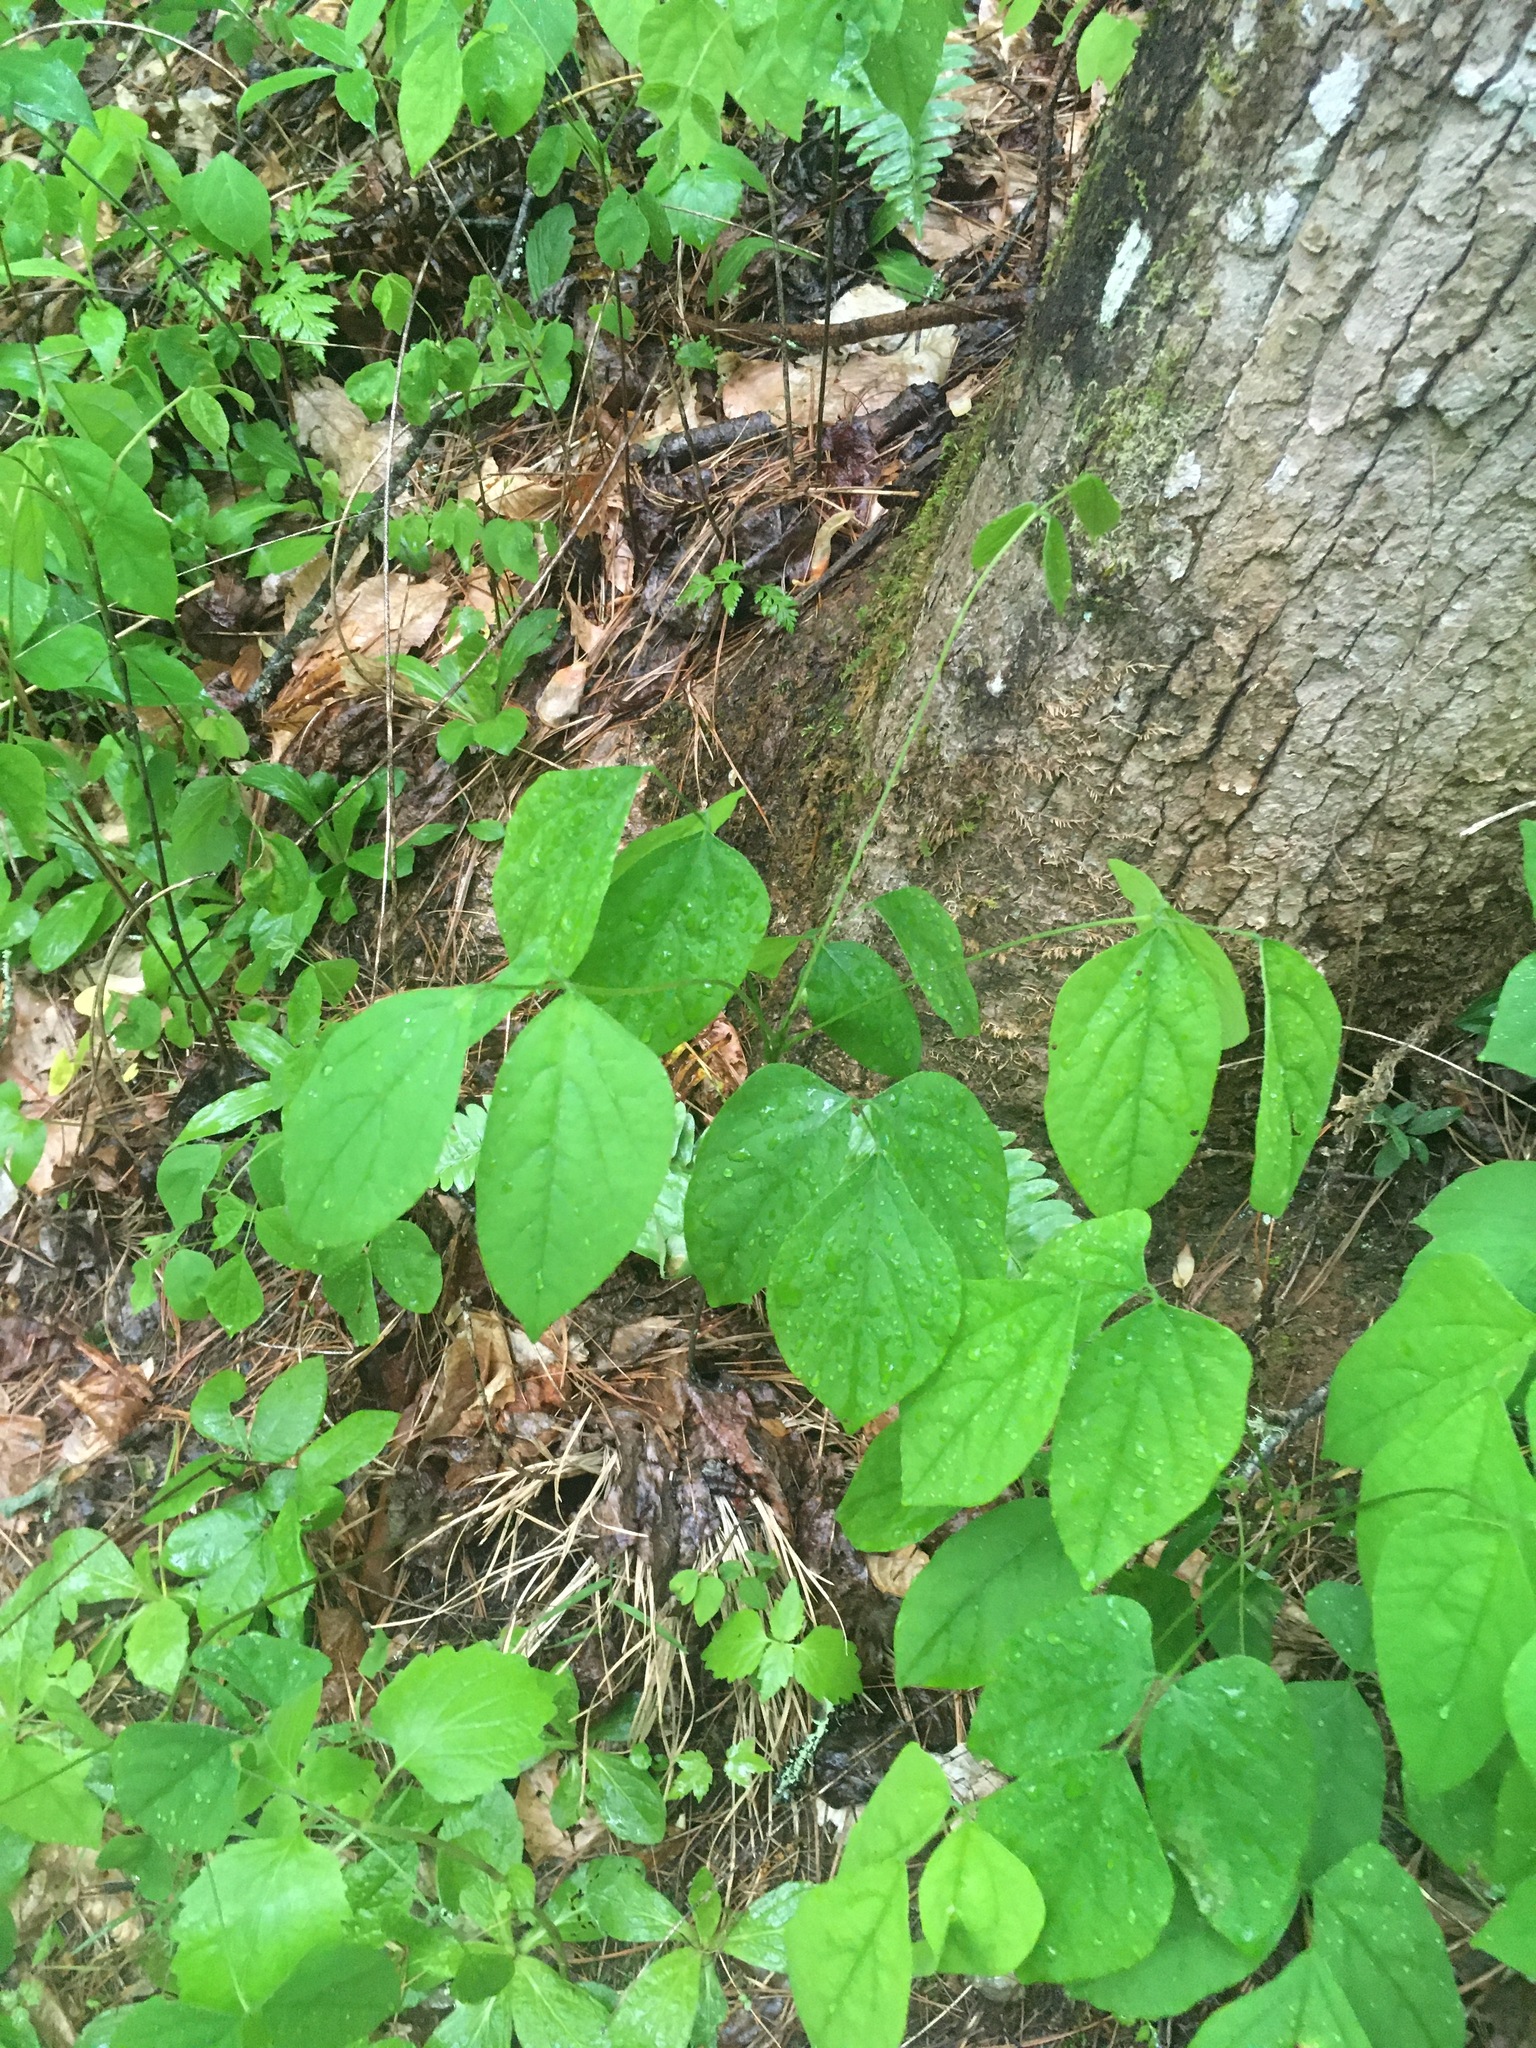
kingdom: Plantae
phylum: Tracheophyta
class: Magnoliopsida
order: Fabales
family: Fabaceae
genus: Hylodesmum
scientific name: Hylodesmum nudiflorum
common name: Bare-stemmed tick-trefoil
